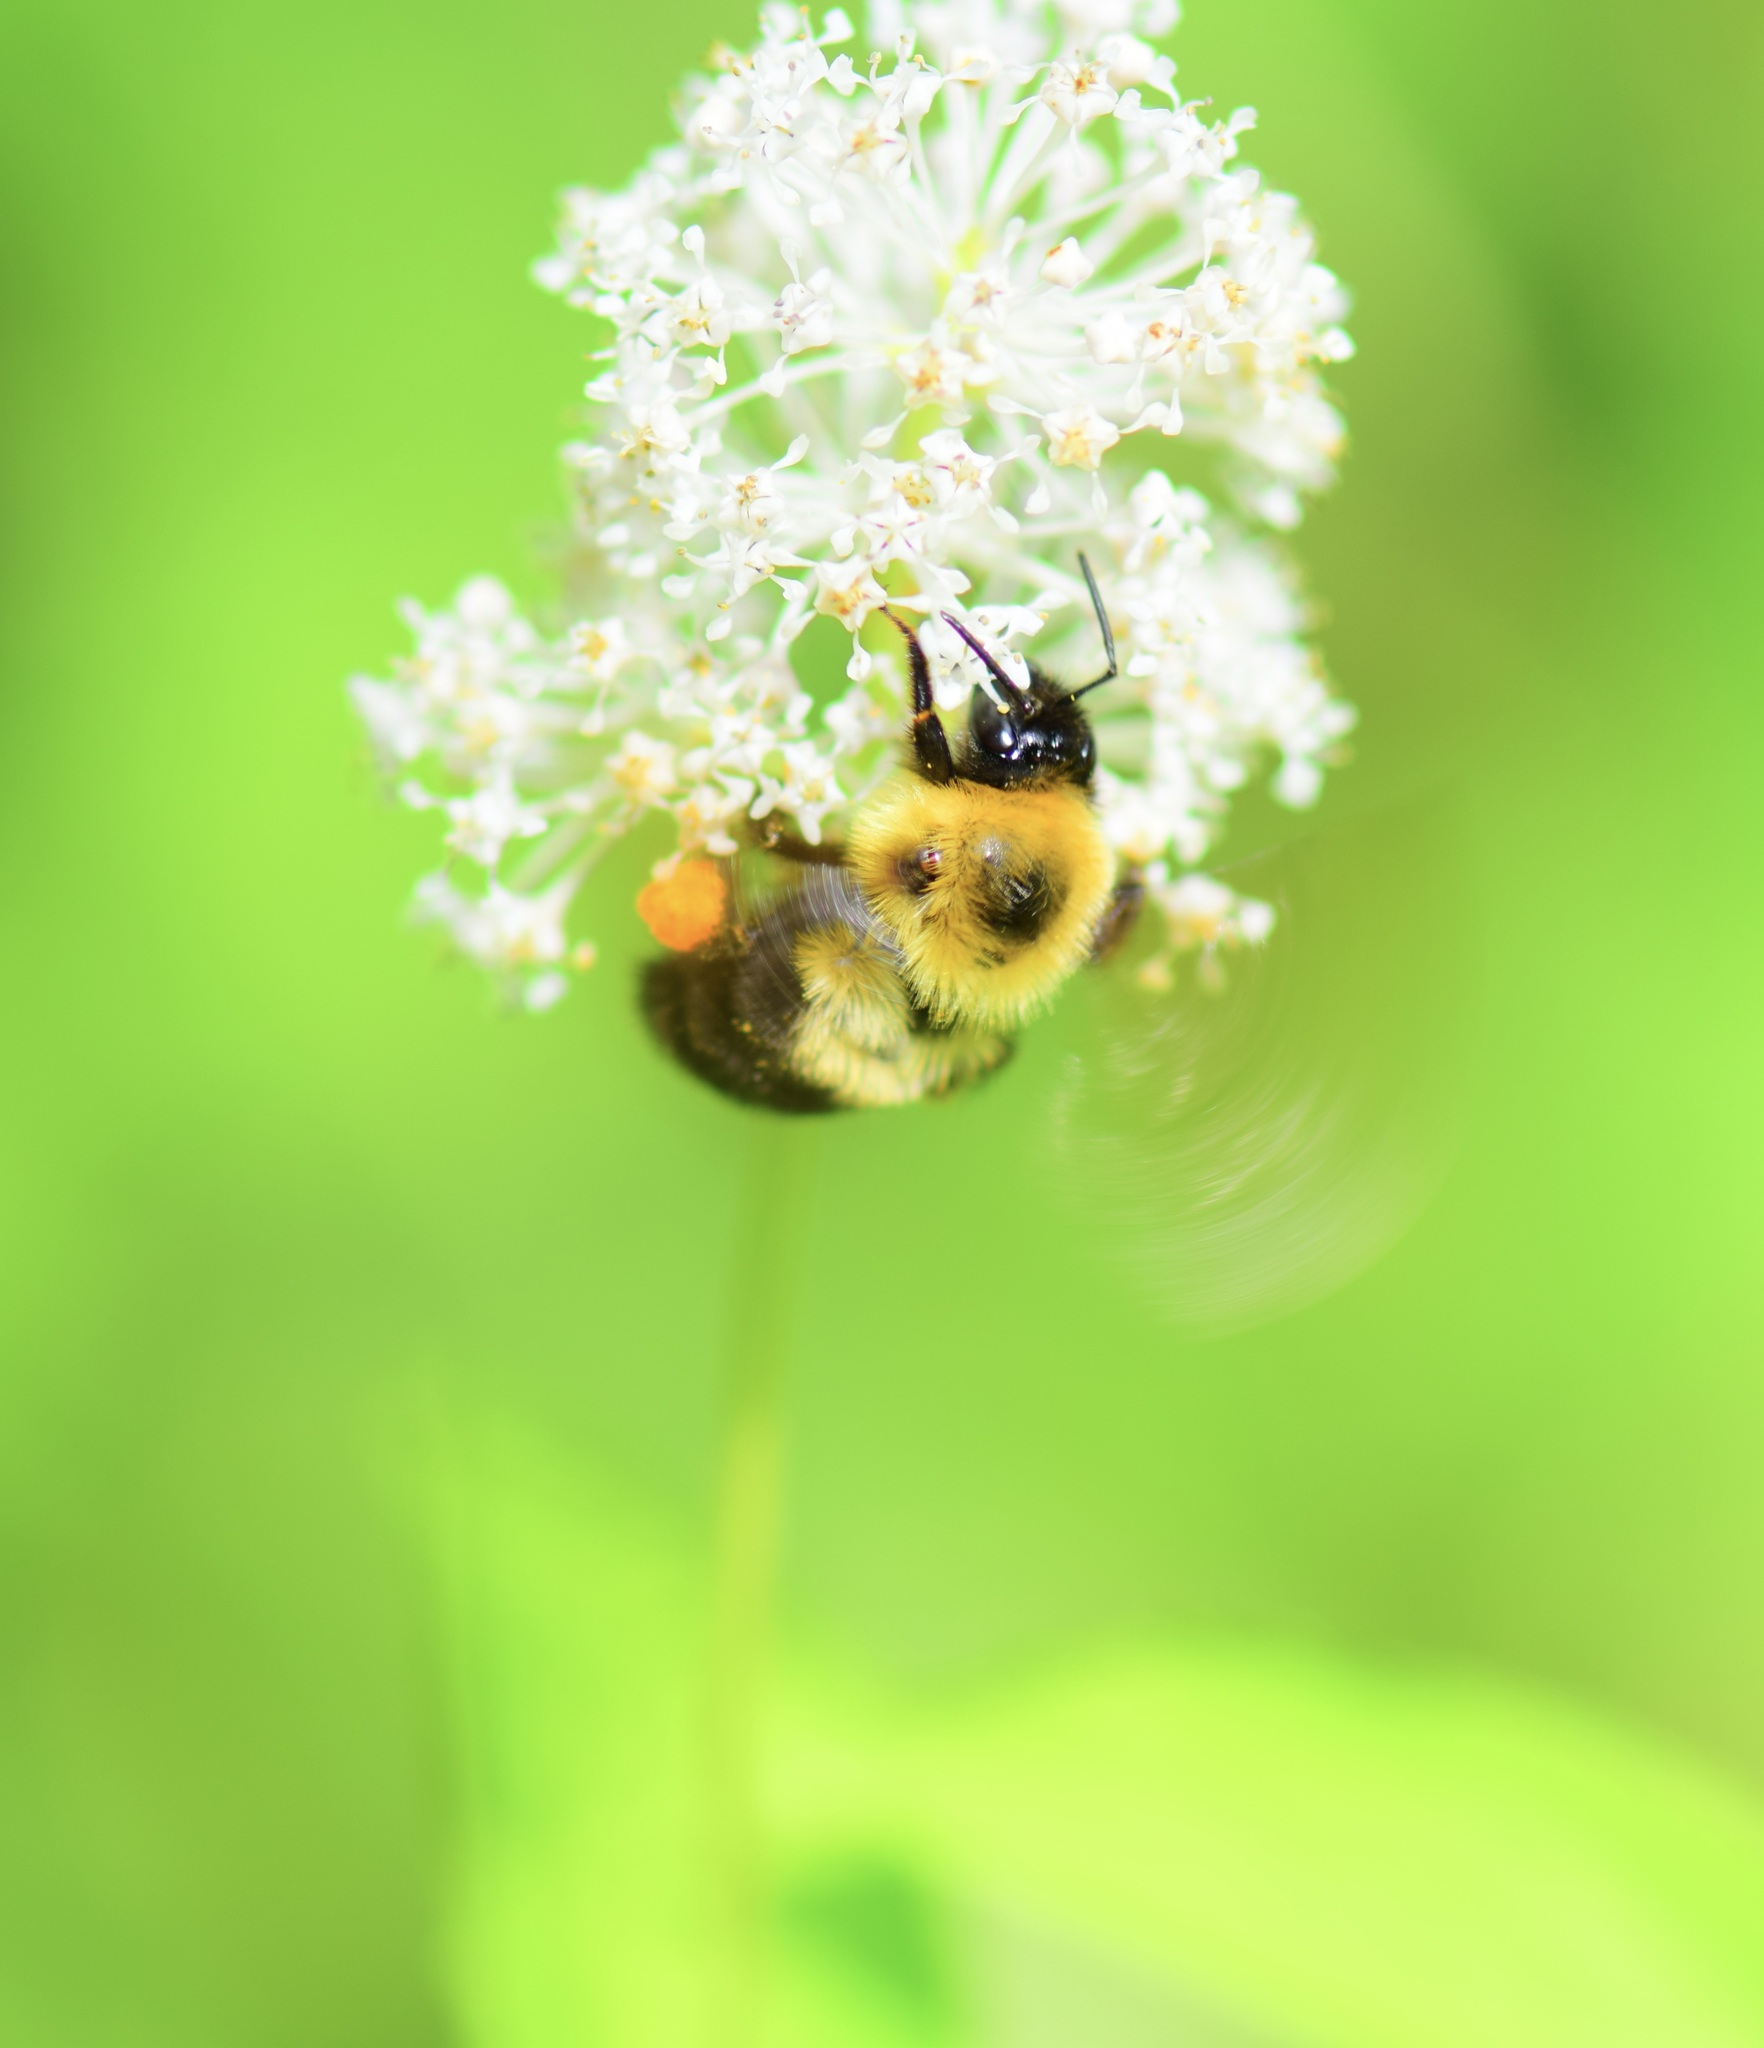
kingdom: Animalia
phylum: Arthropoda
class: Insecta
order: Hymenoptera
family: Apidae
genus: Bombus
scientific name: Bombus bimaculatus
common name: Two-spotted bumble bee
